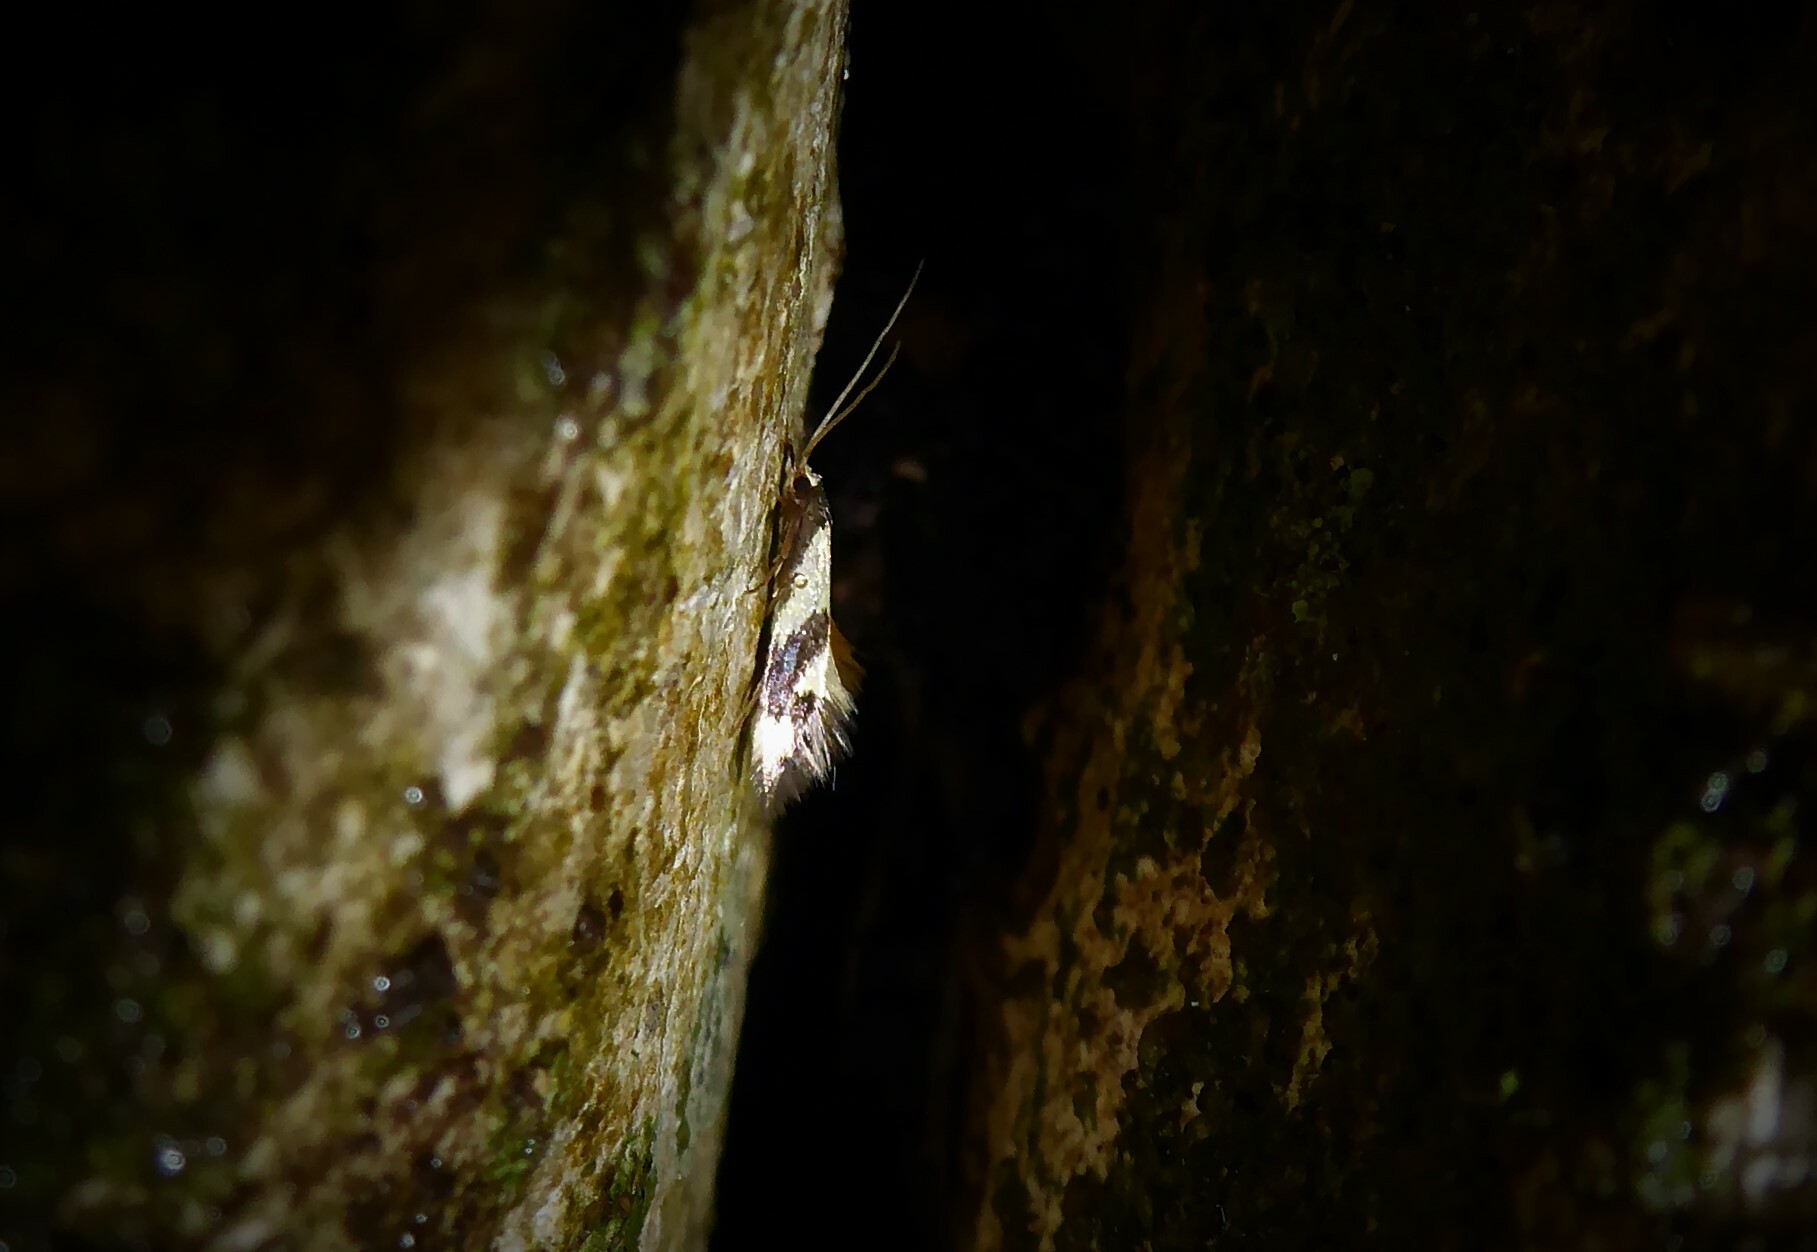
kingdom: Animalia
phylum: Arthropoda
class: Insecta
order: Lepidoptera
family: Tineidae
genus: Opogona
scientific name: Opogona comptella
